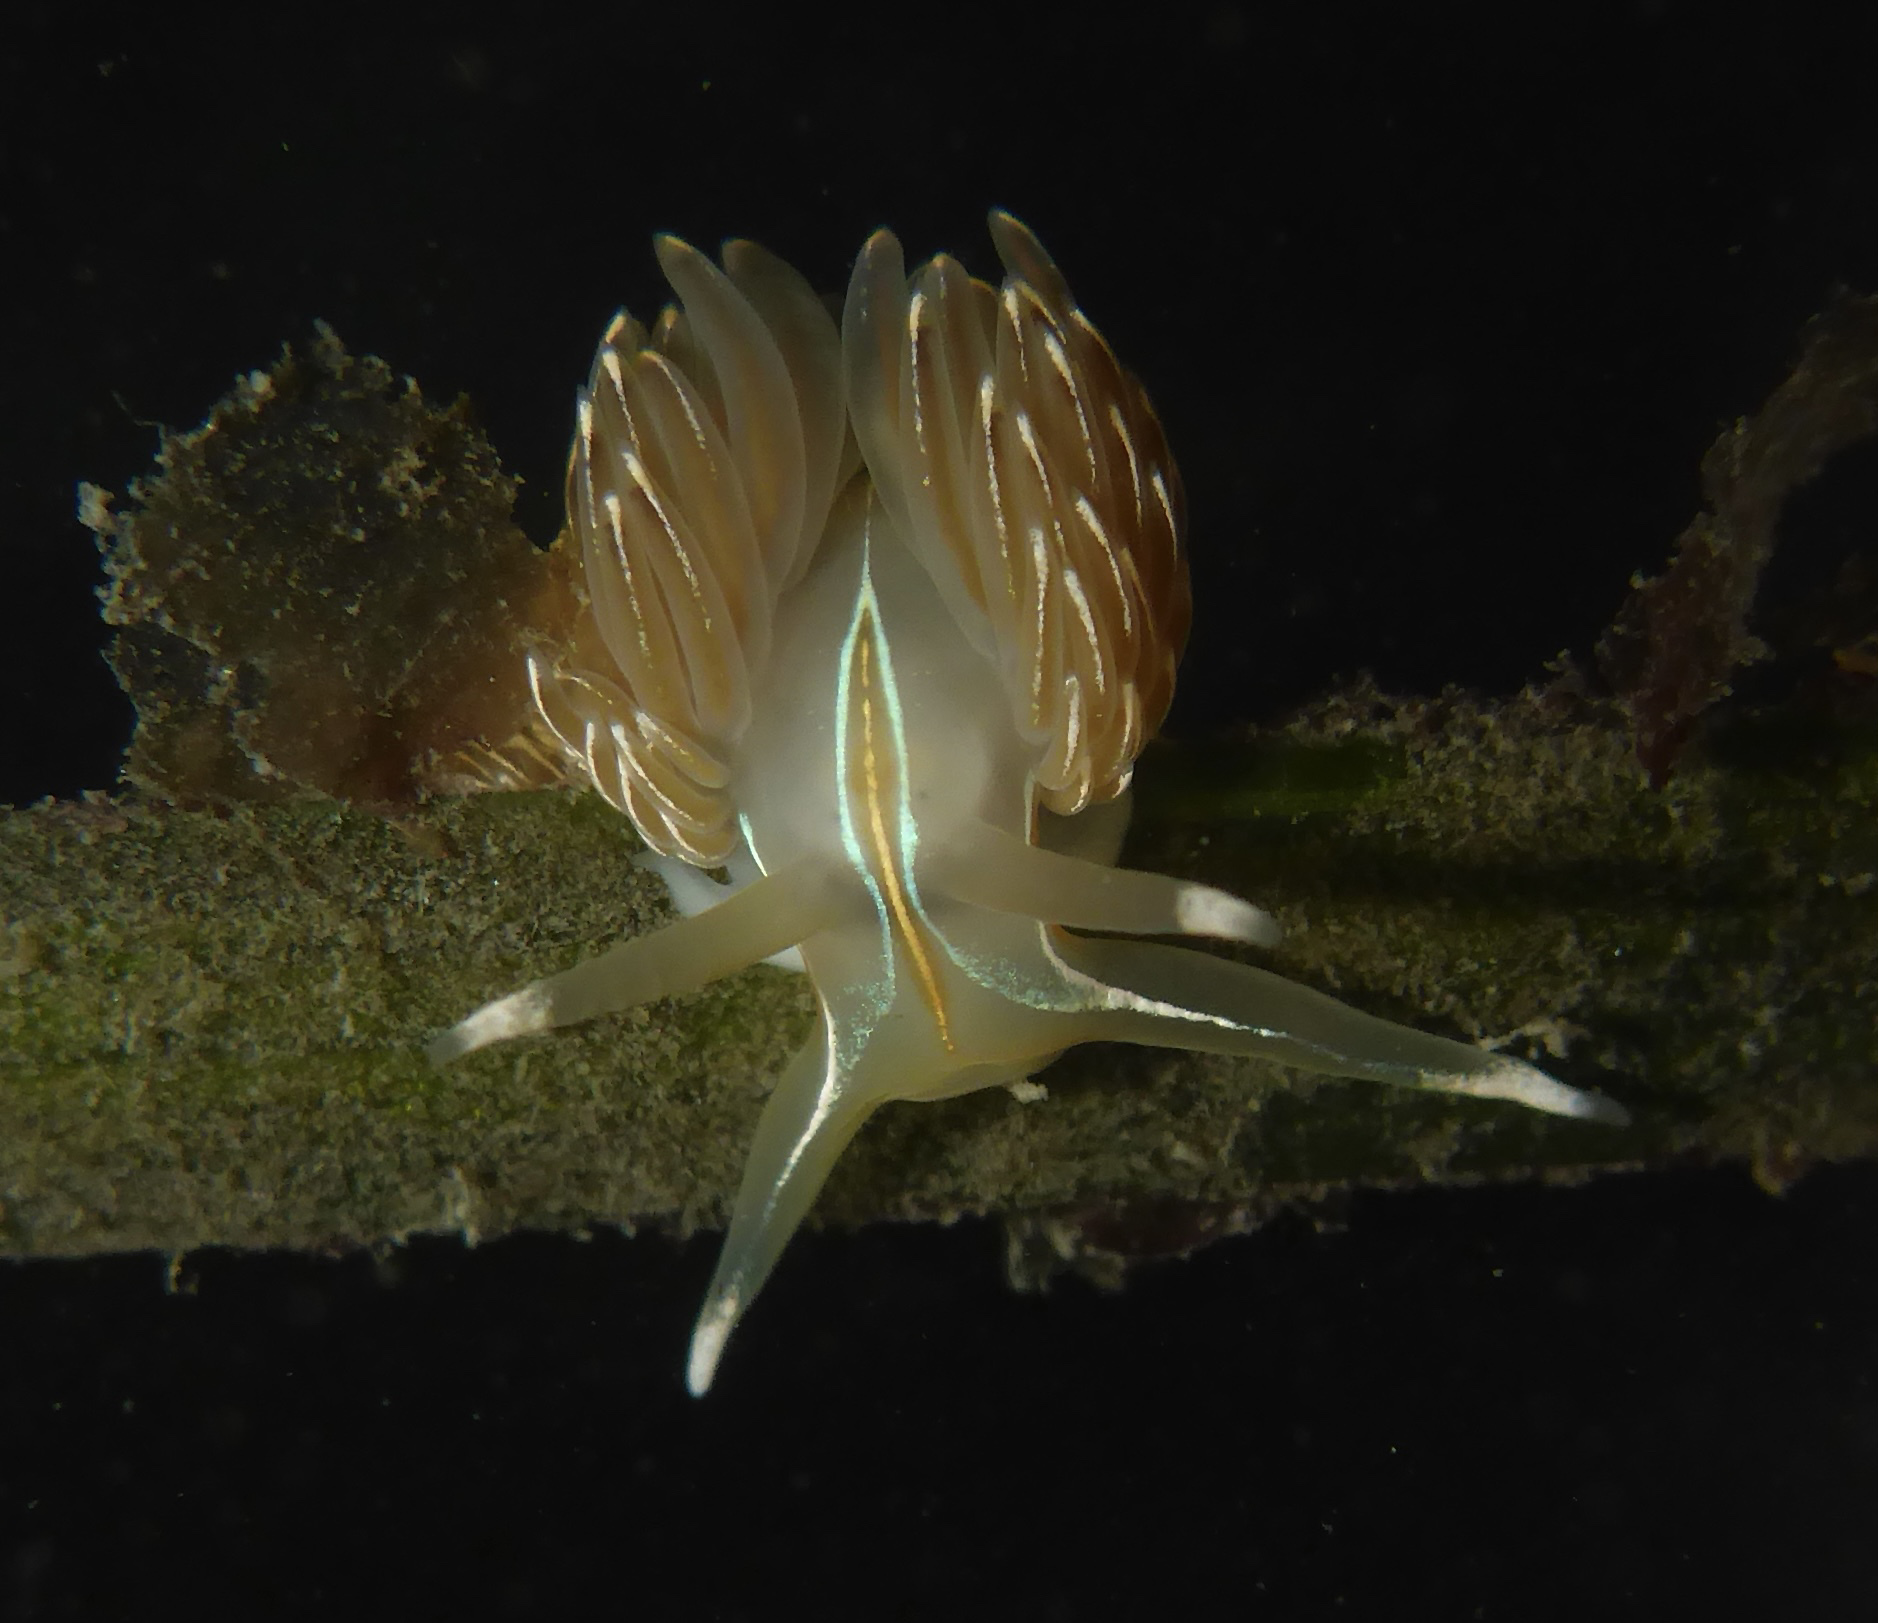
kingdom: Animalia
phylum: Mollusca
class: Gastropoda
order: Nudibranchia
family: Myrrhinidae
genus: Hermissenda
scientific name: Hermissenda crassicornis
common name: Hermissenda
